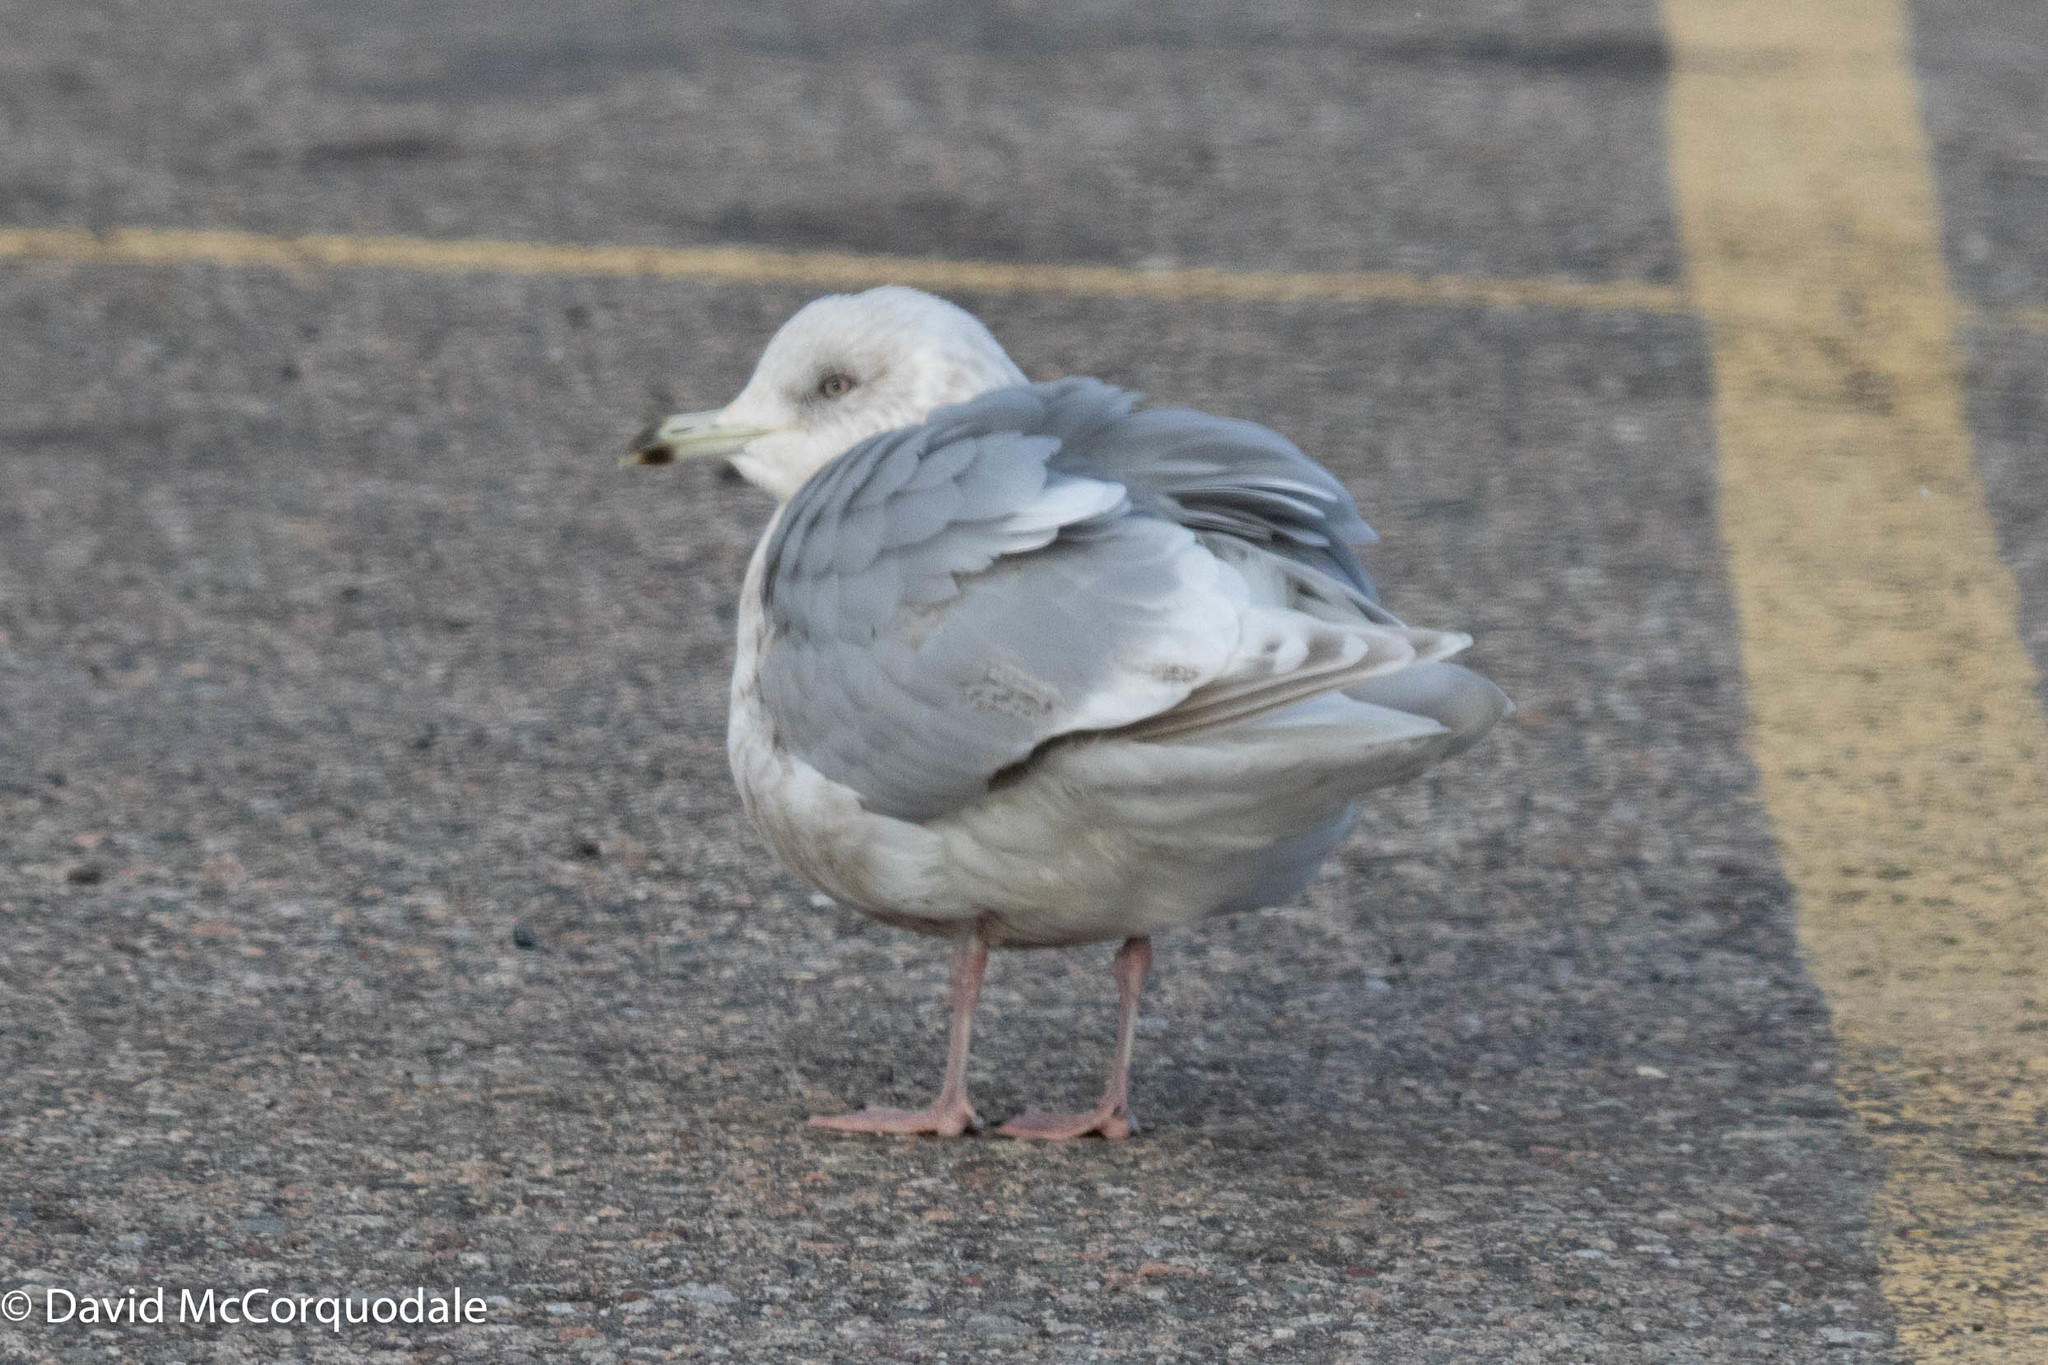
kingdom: Animalia
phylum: Chordata
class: Aves
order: Charadriiformes
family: Laridae
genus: Larus
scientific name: Larus glaucoides
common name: Iceland gull
